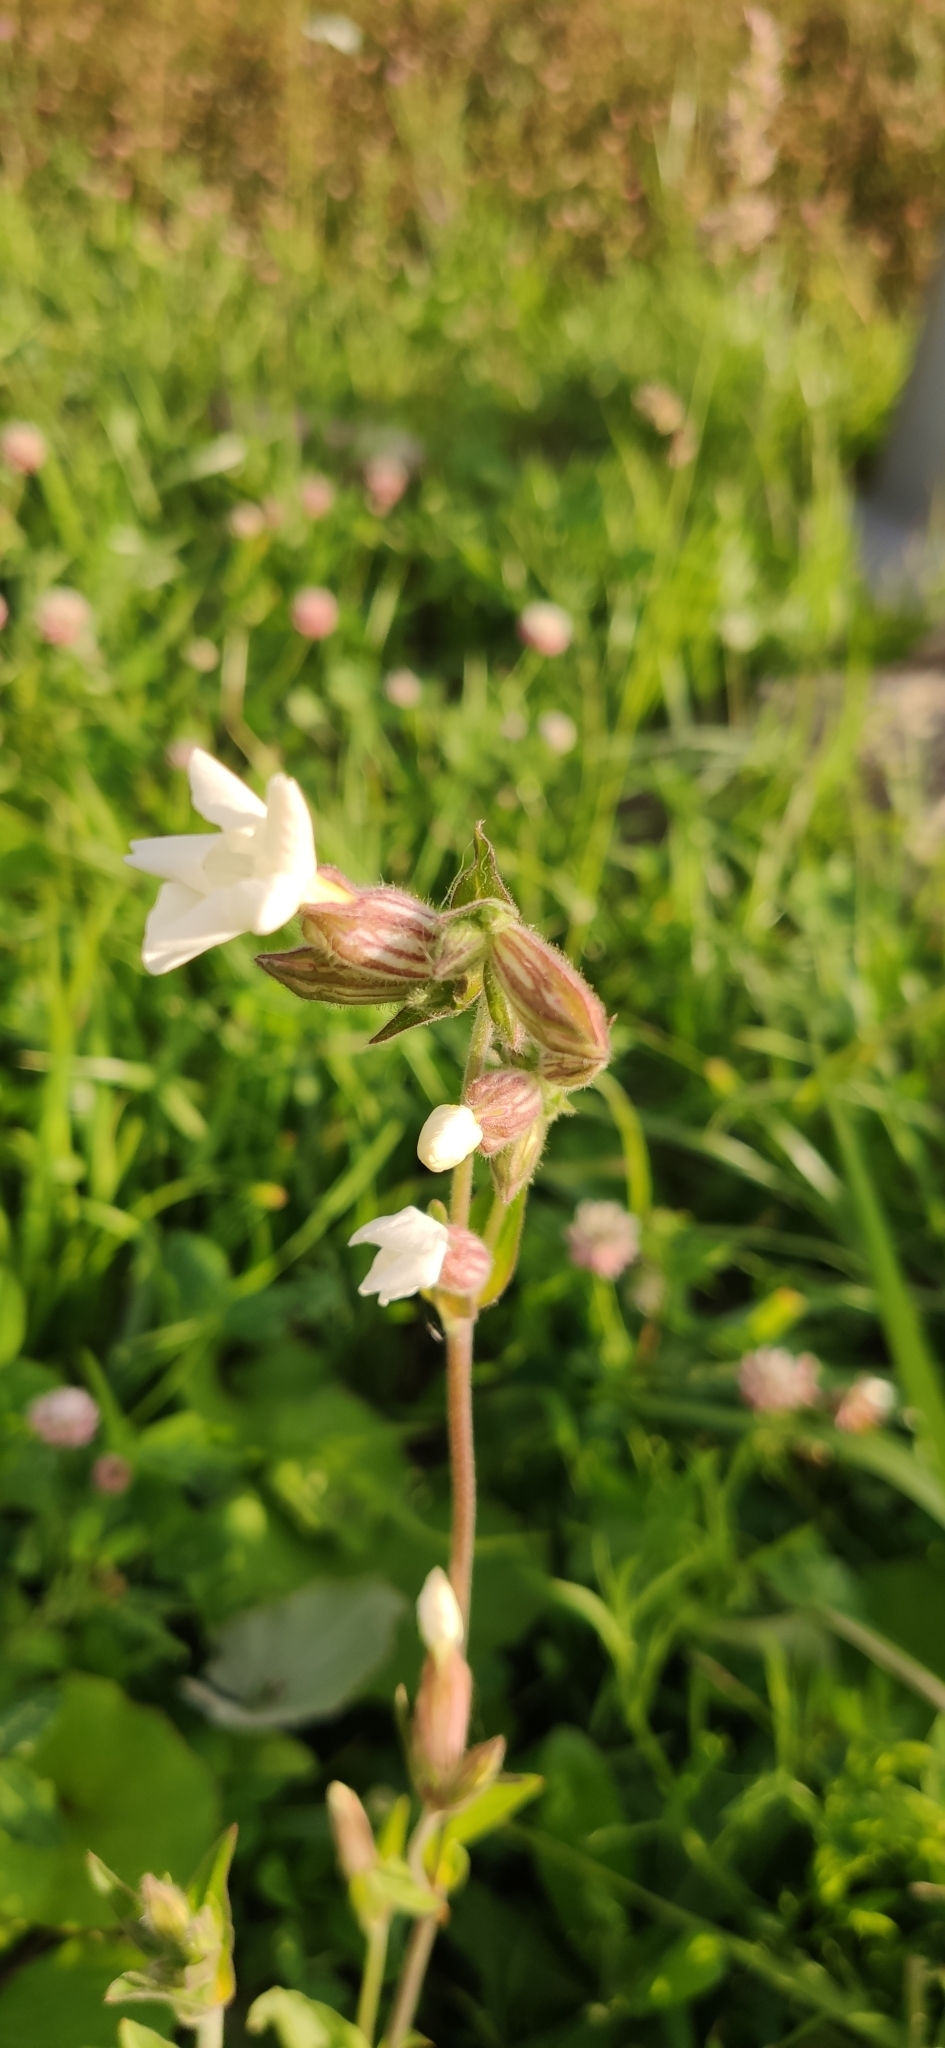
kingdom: Plantae
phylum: Tracheophyta
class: Magnoliopsida
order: Caryophyllales
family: Caryophyllaceae
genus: Silene
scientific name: Silene latifolia
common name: White campion
